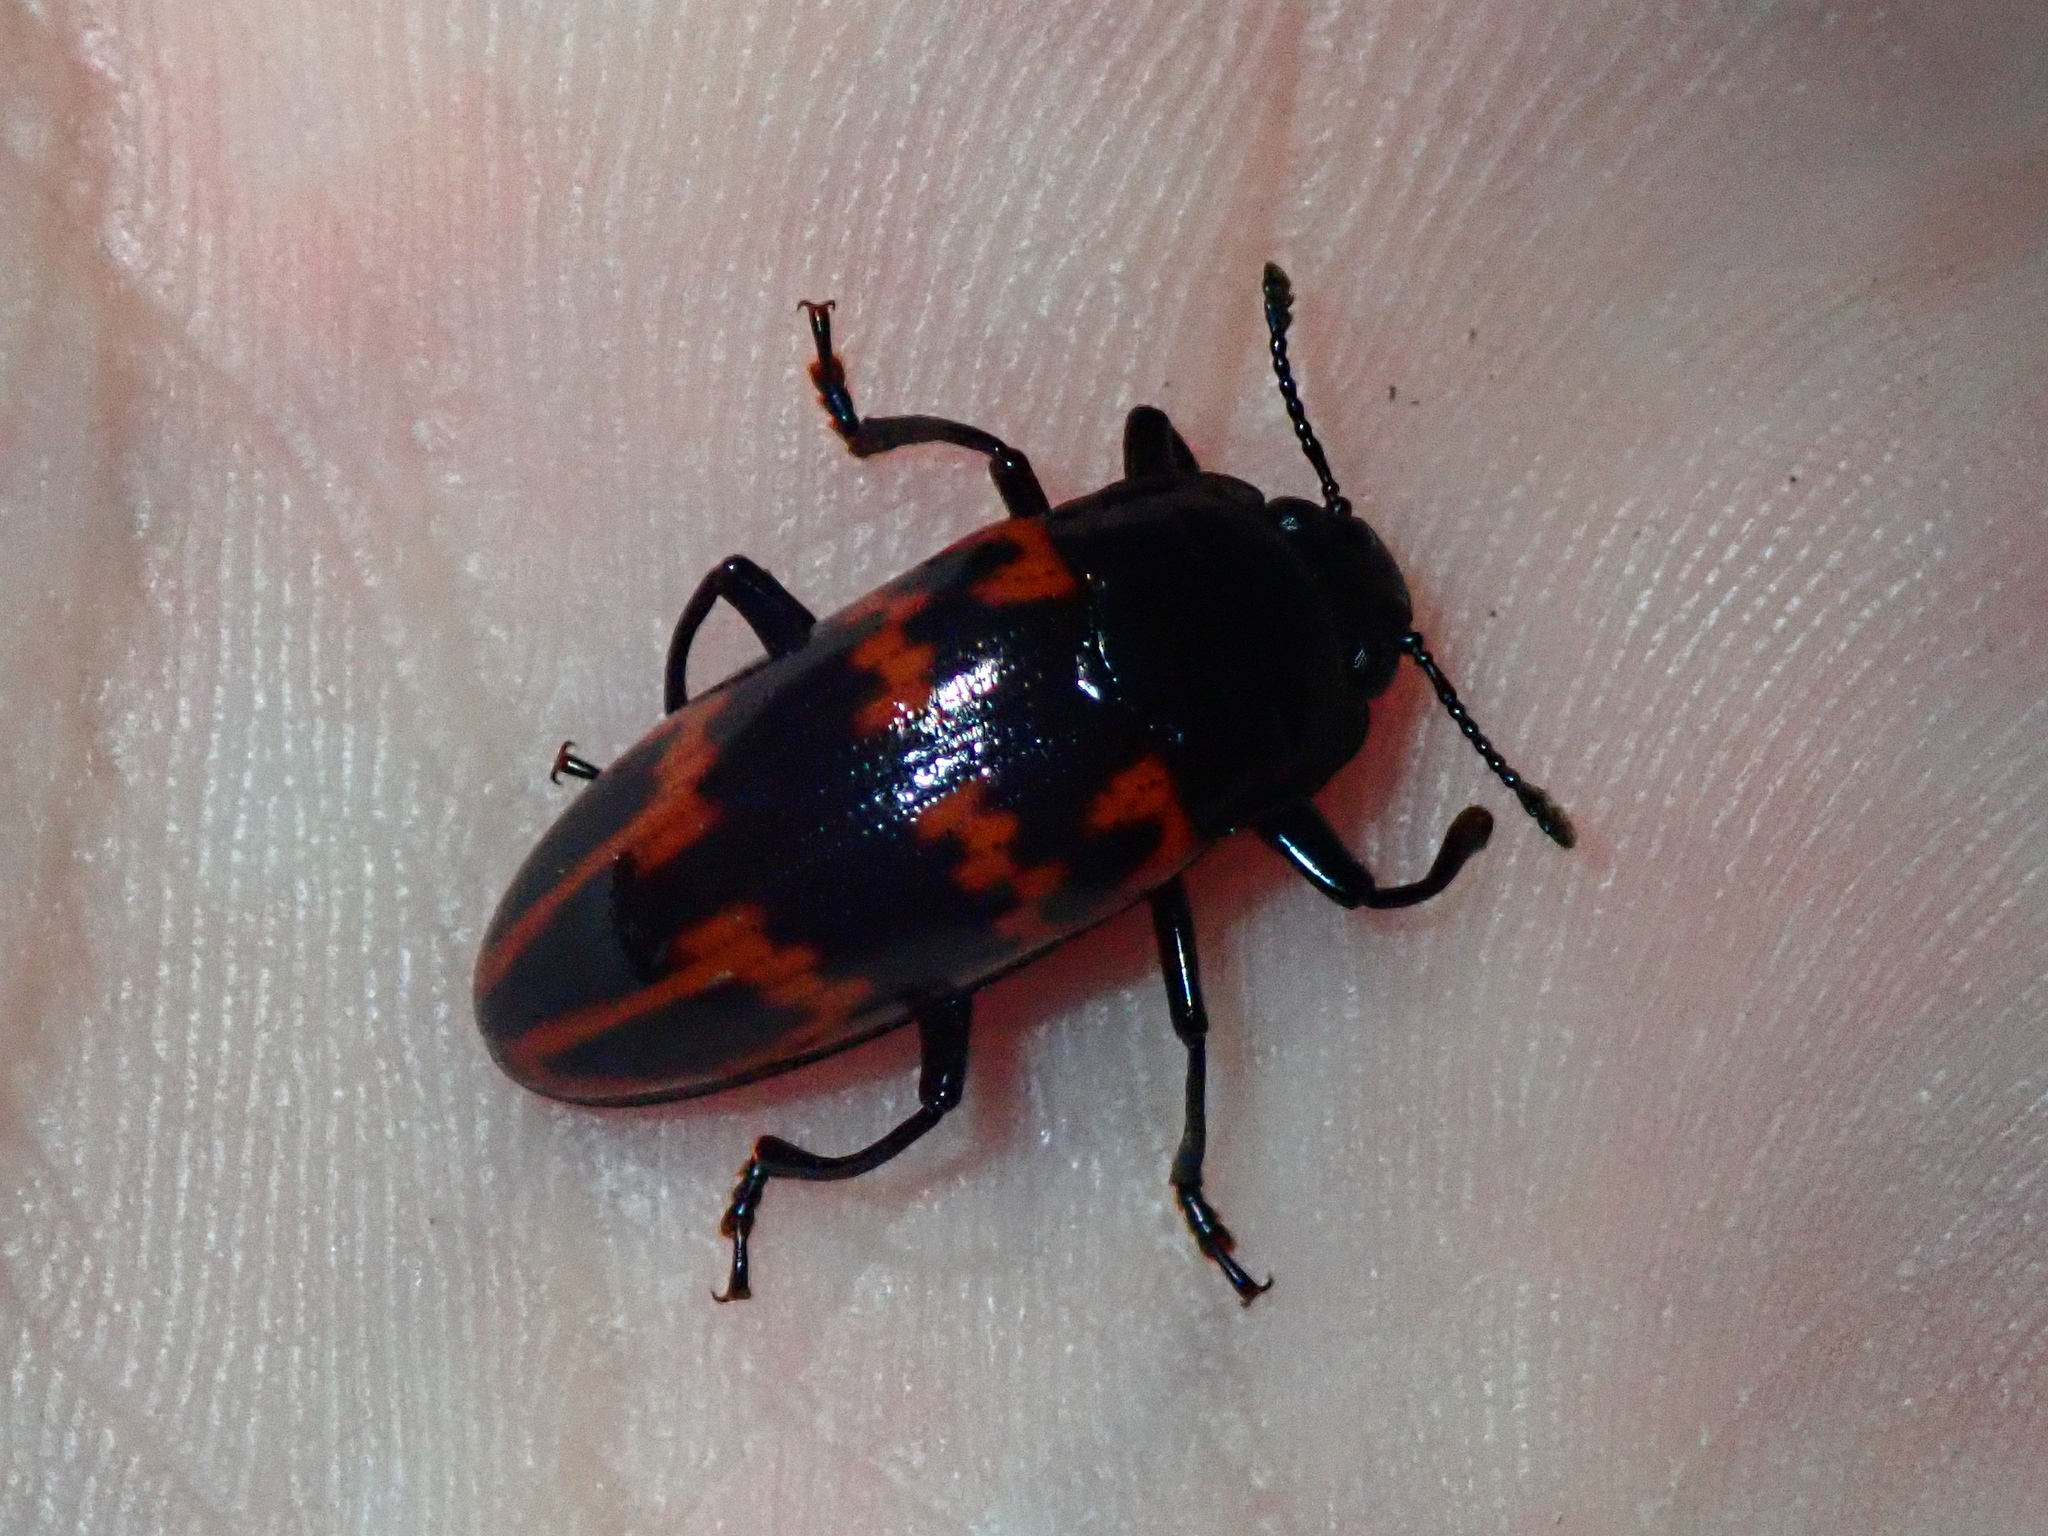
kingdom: Animalia
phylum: Arthropoda
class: Insecta
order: Coleoptera
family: Erotylidae
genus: Pselaphacus
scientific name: Pselaphacus curvipes
